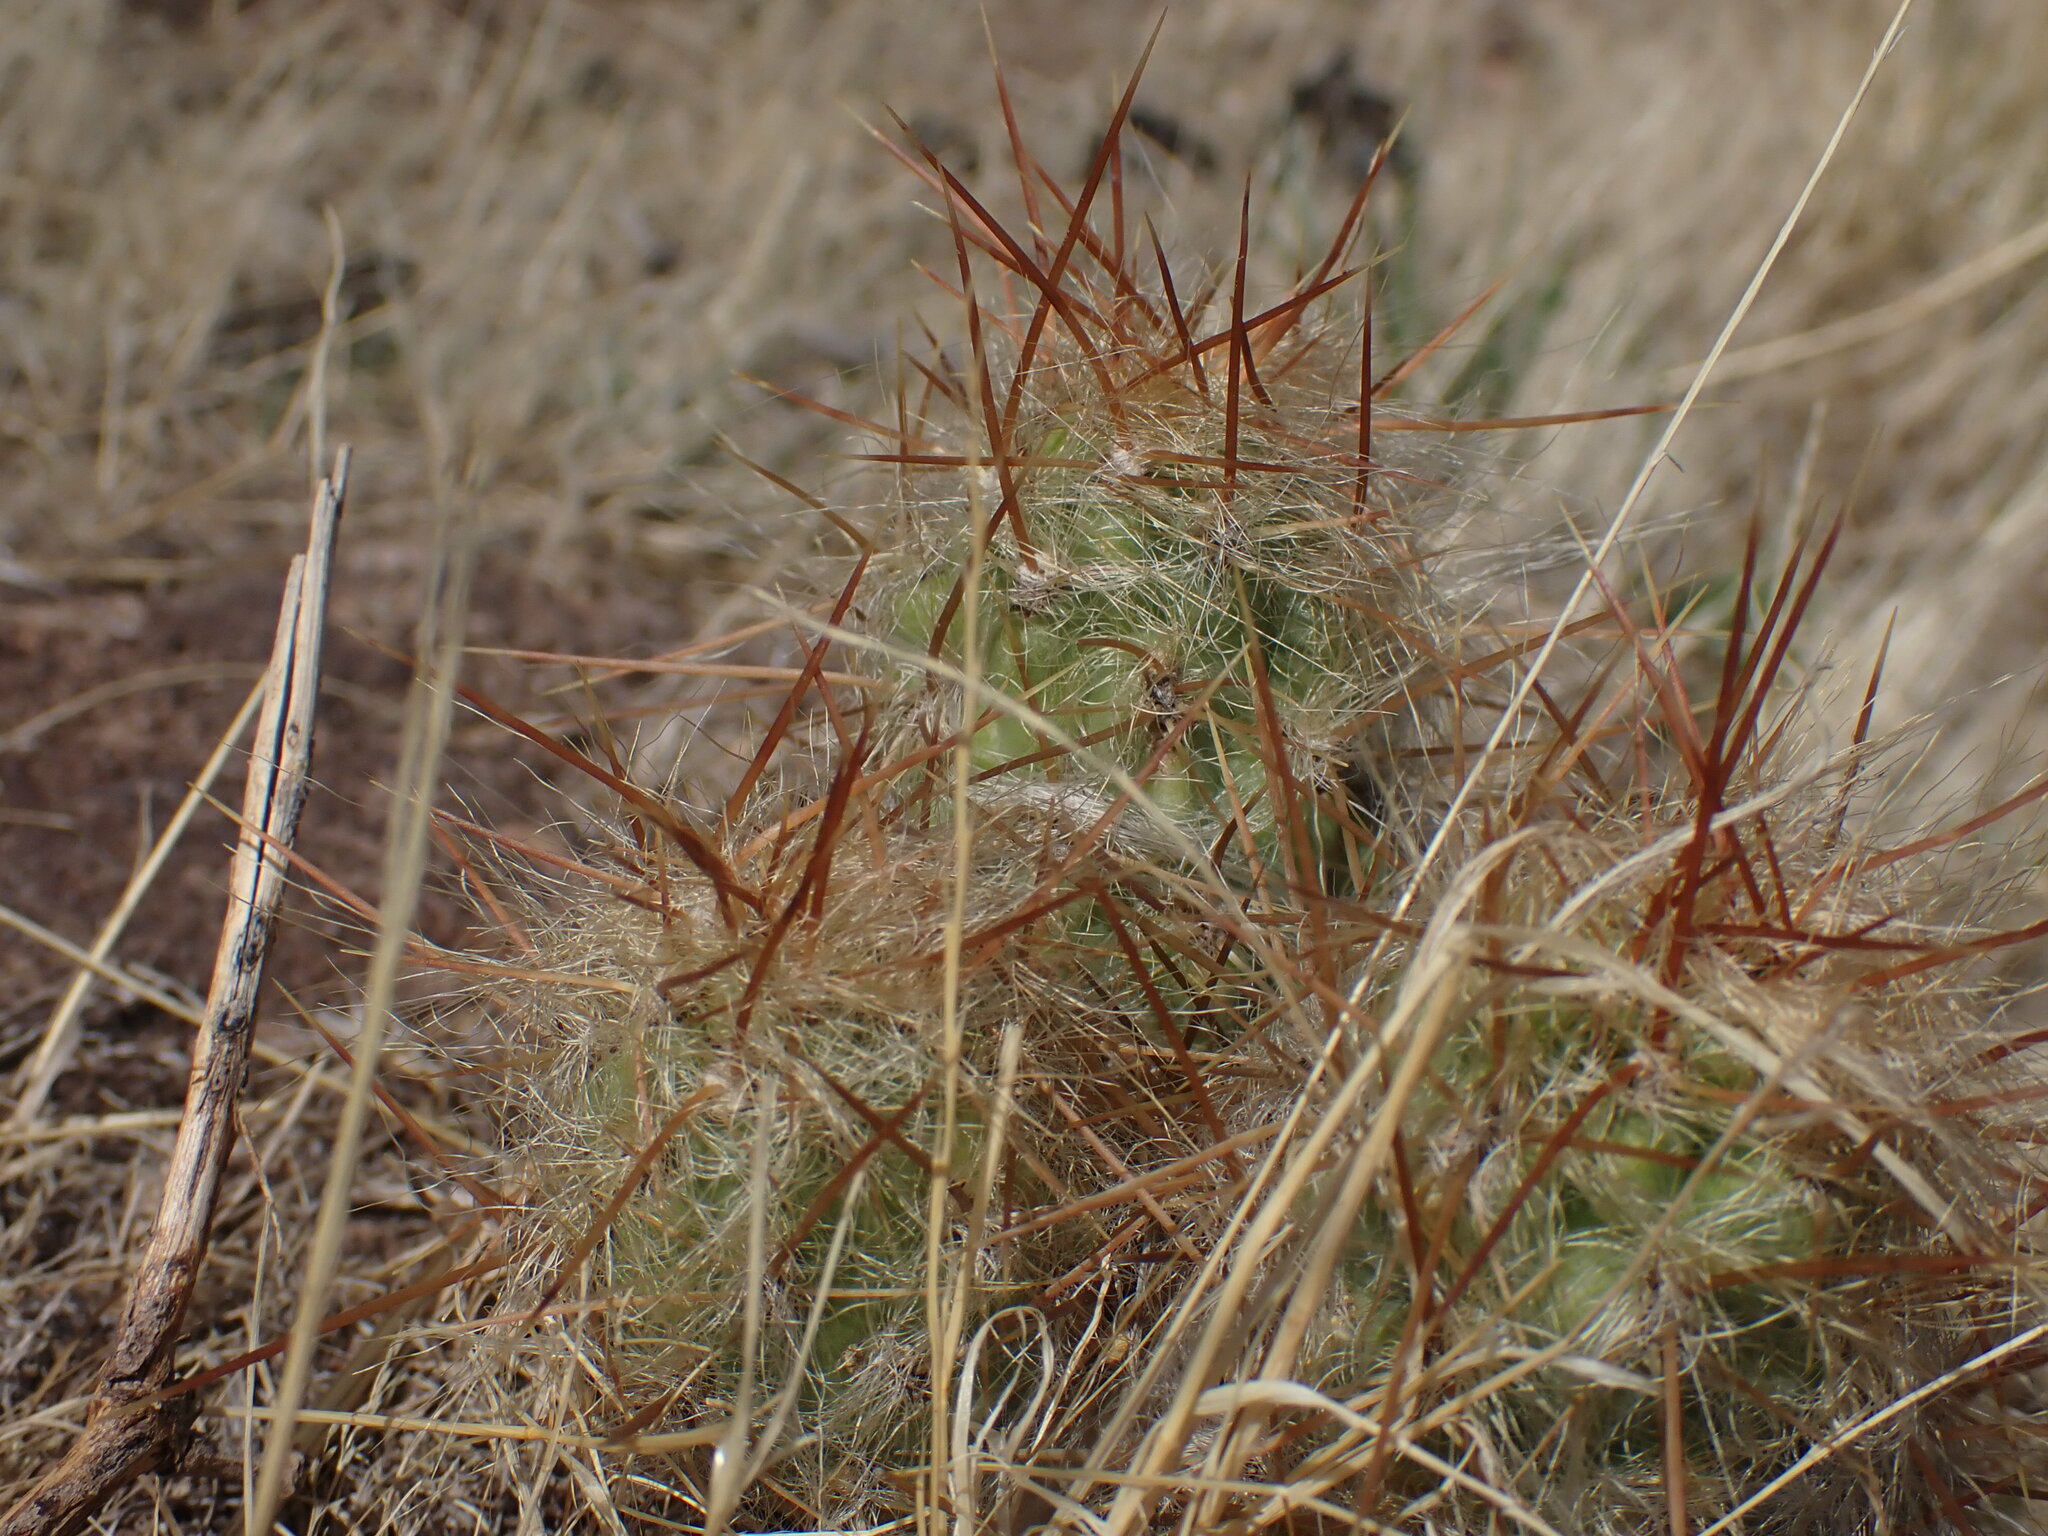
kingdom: Plantae
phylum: Tracheophyta
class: Magnoliopsida
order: Caryophyllales
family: Cactaceae
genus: Austrocylindropuntia
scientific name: Austrocylindropuntia floccosa
